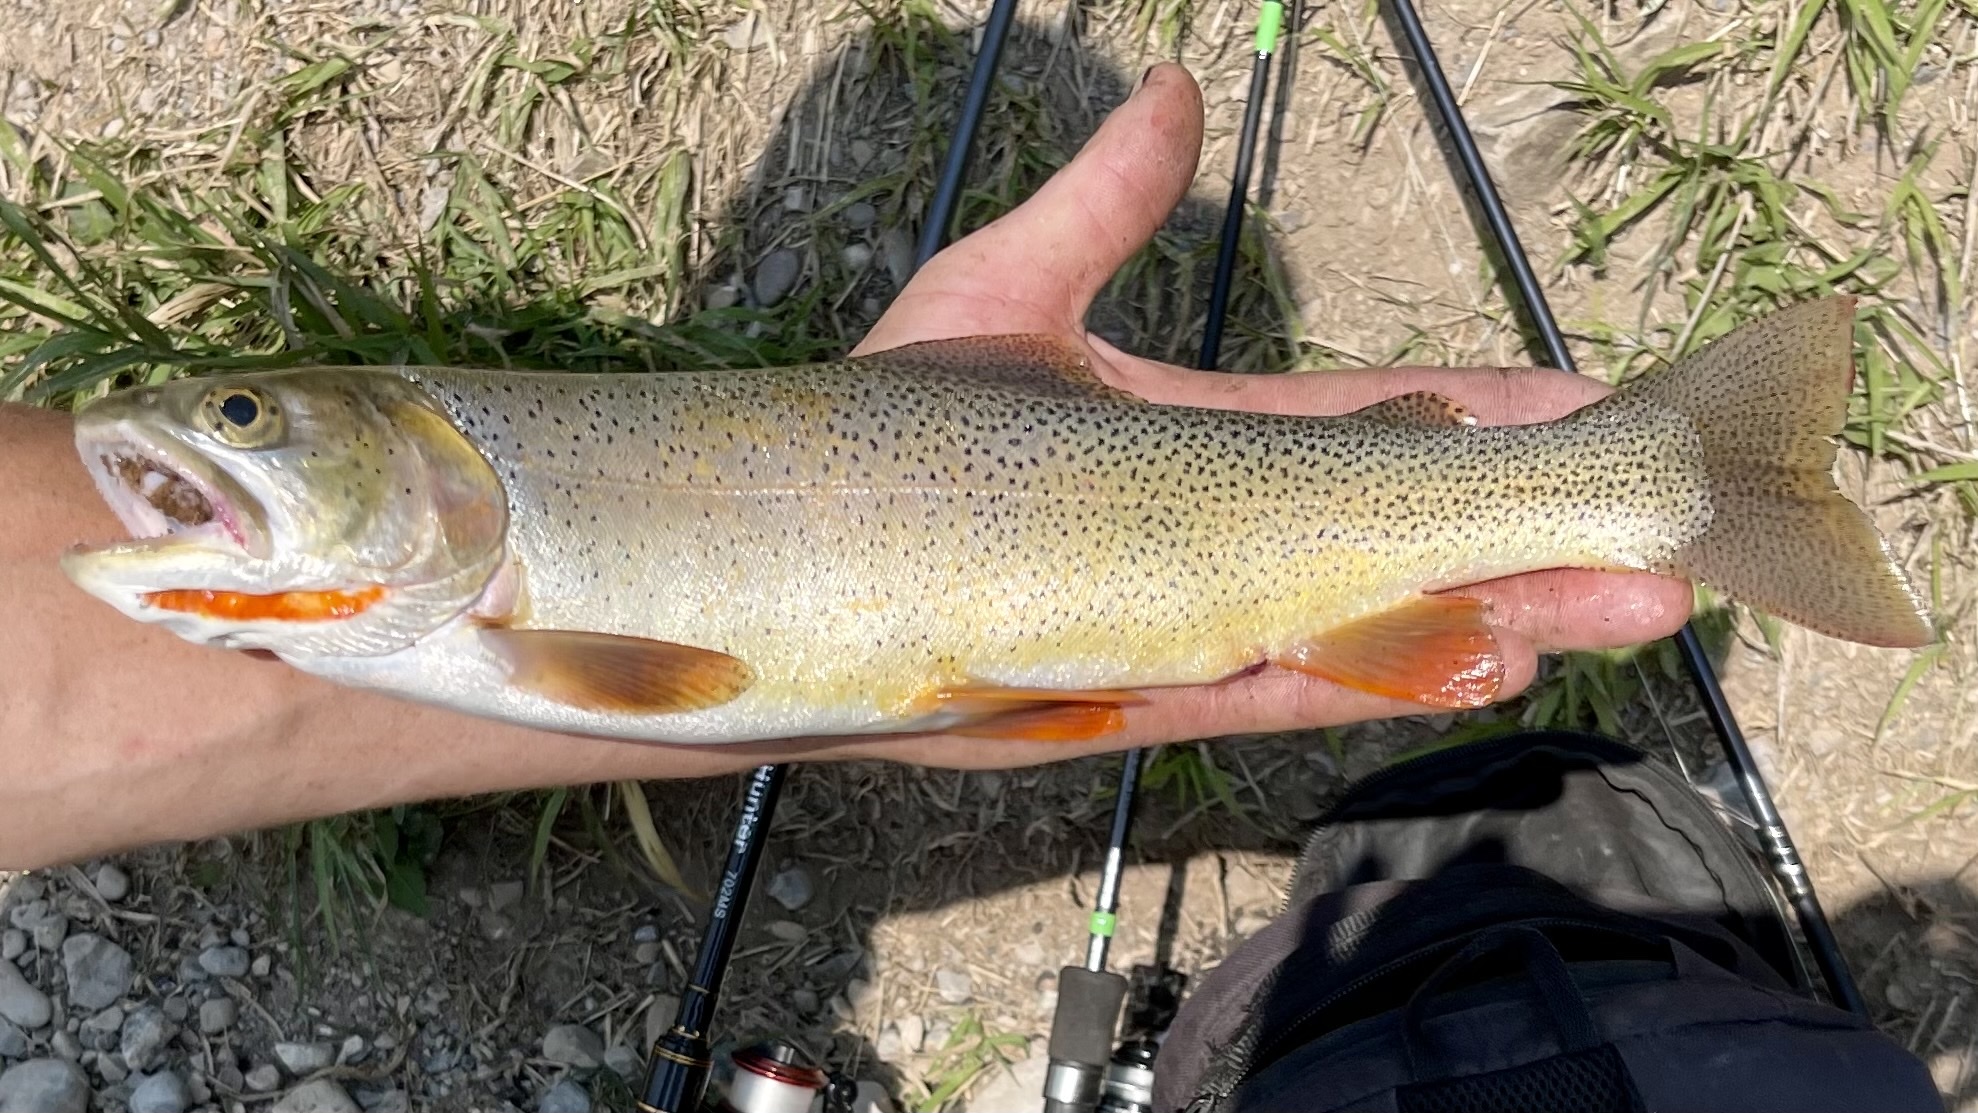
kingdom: Animalia
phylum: Chordata
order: Salmoniformes
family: Salmonidae
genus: Oncorhynchus
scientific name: Oncorhynchus virginalis
